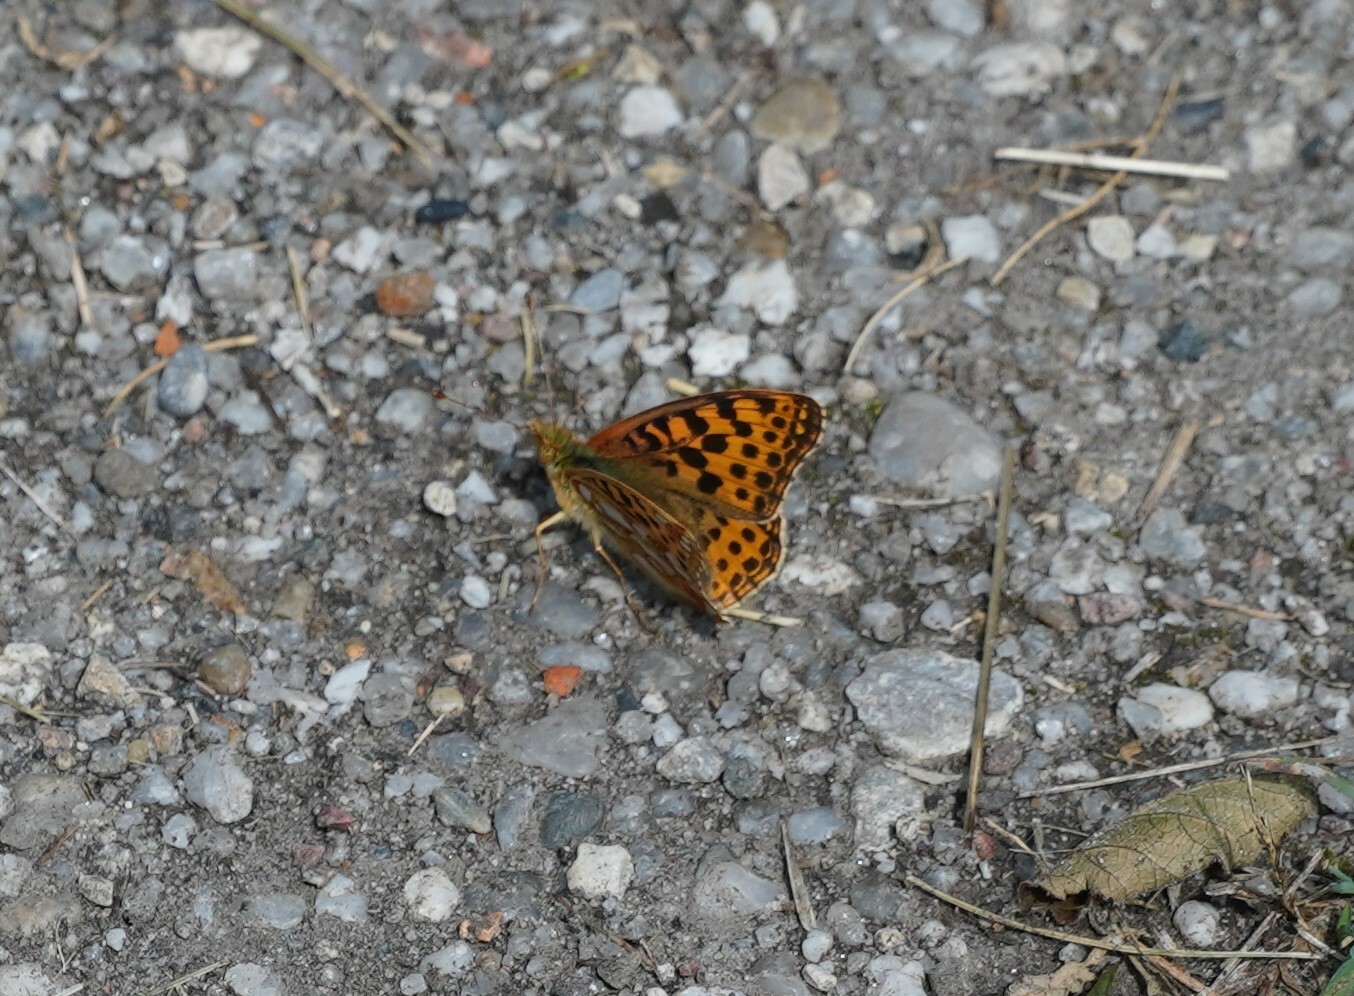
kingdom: Animalia
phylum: Arthropoda
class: Insecta
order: Lepidoptera
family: Nymphalidae
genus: Issoria
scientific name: Issoria lathonia
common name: Queen of spain fritillary
